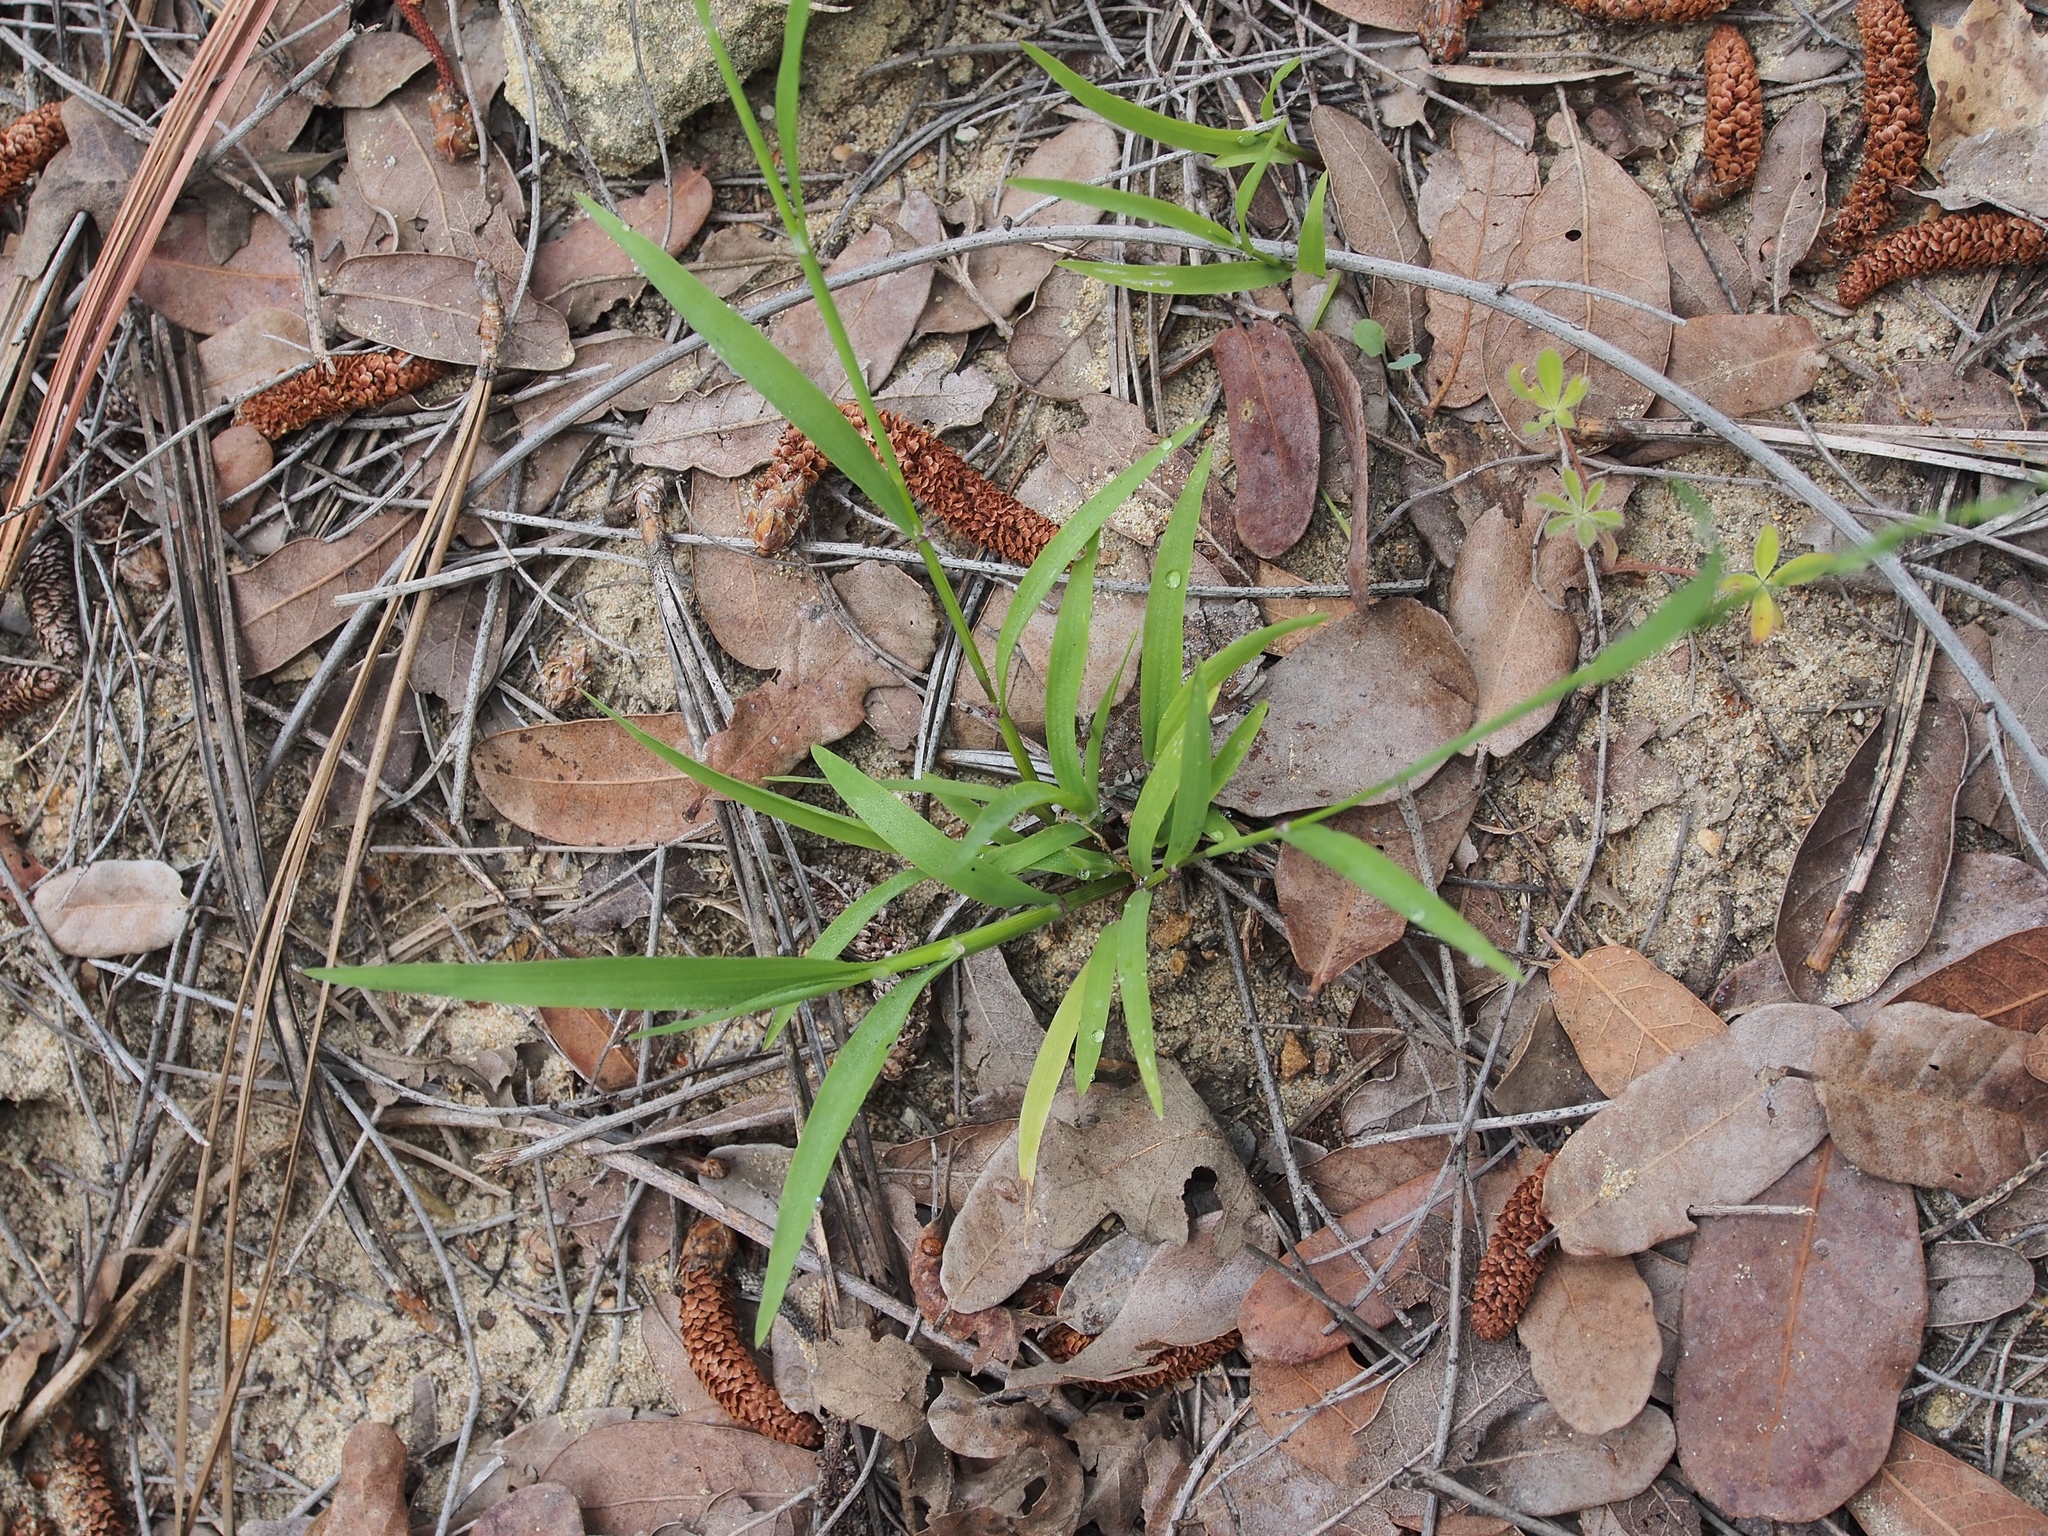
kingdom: Plantae
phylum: Tracheophyta
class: Liliopsida
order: Poales
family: Poaceae
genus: Ehrharta
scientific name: Ehrharta erecta
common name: Panic veldtgrass
